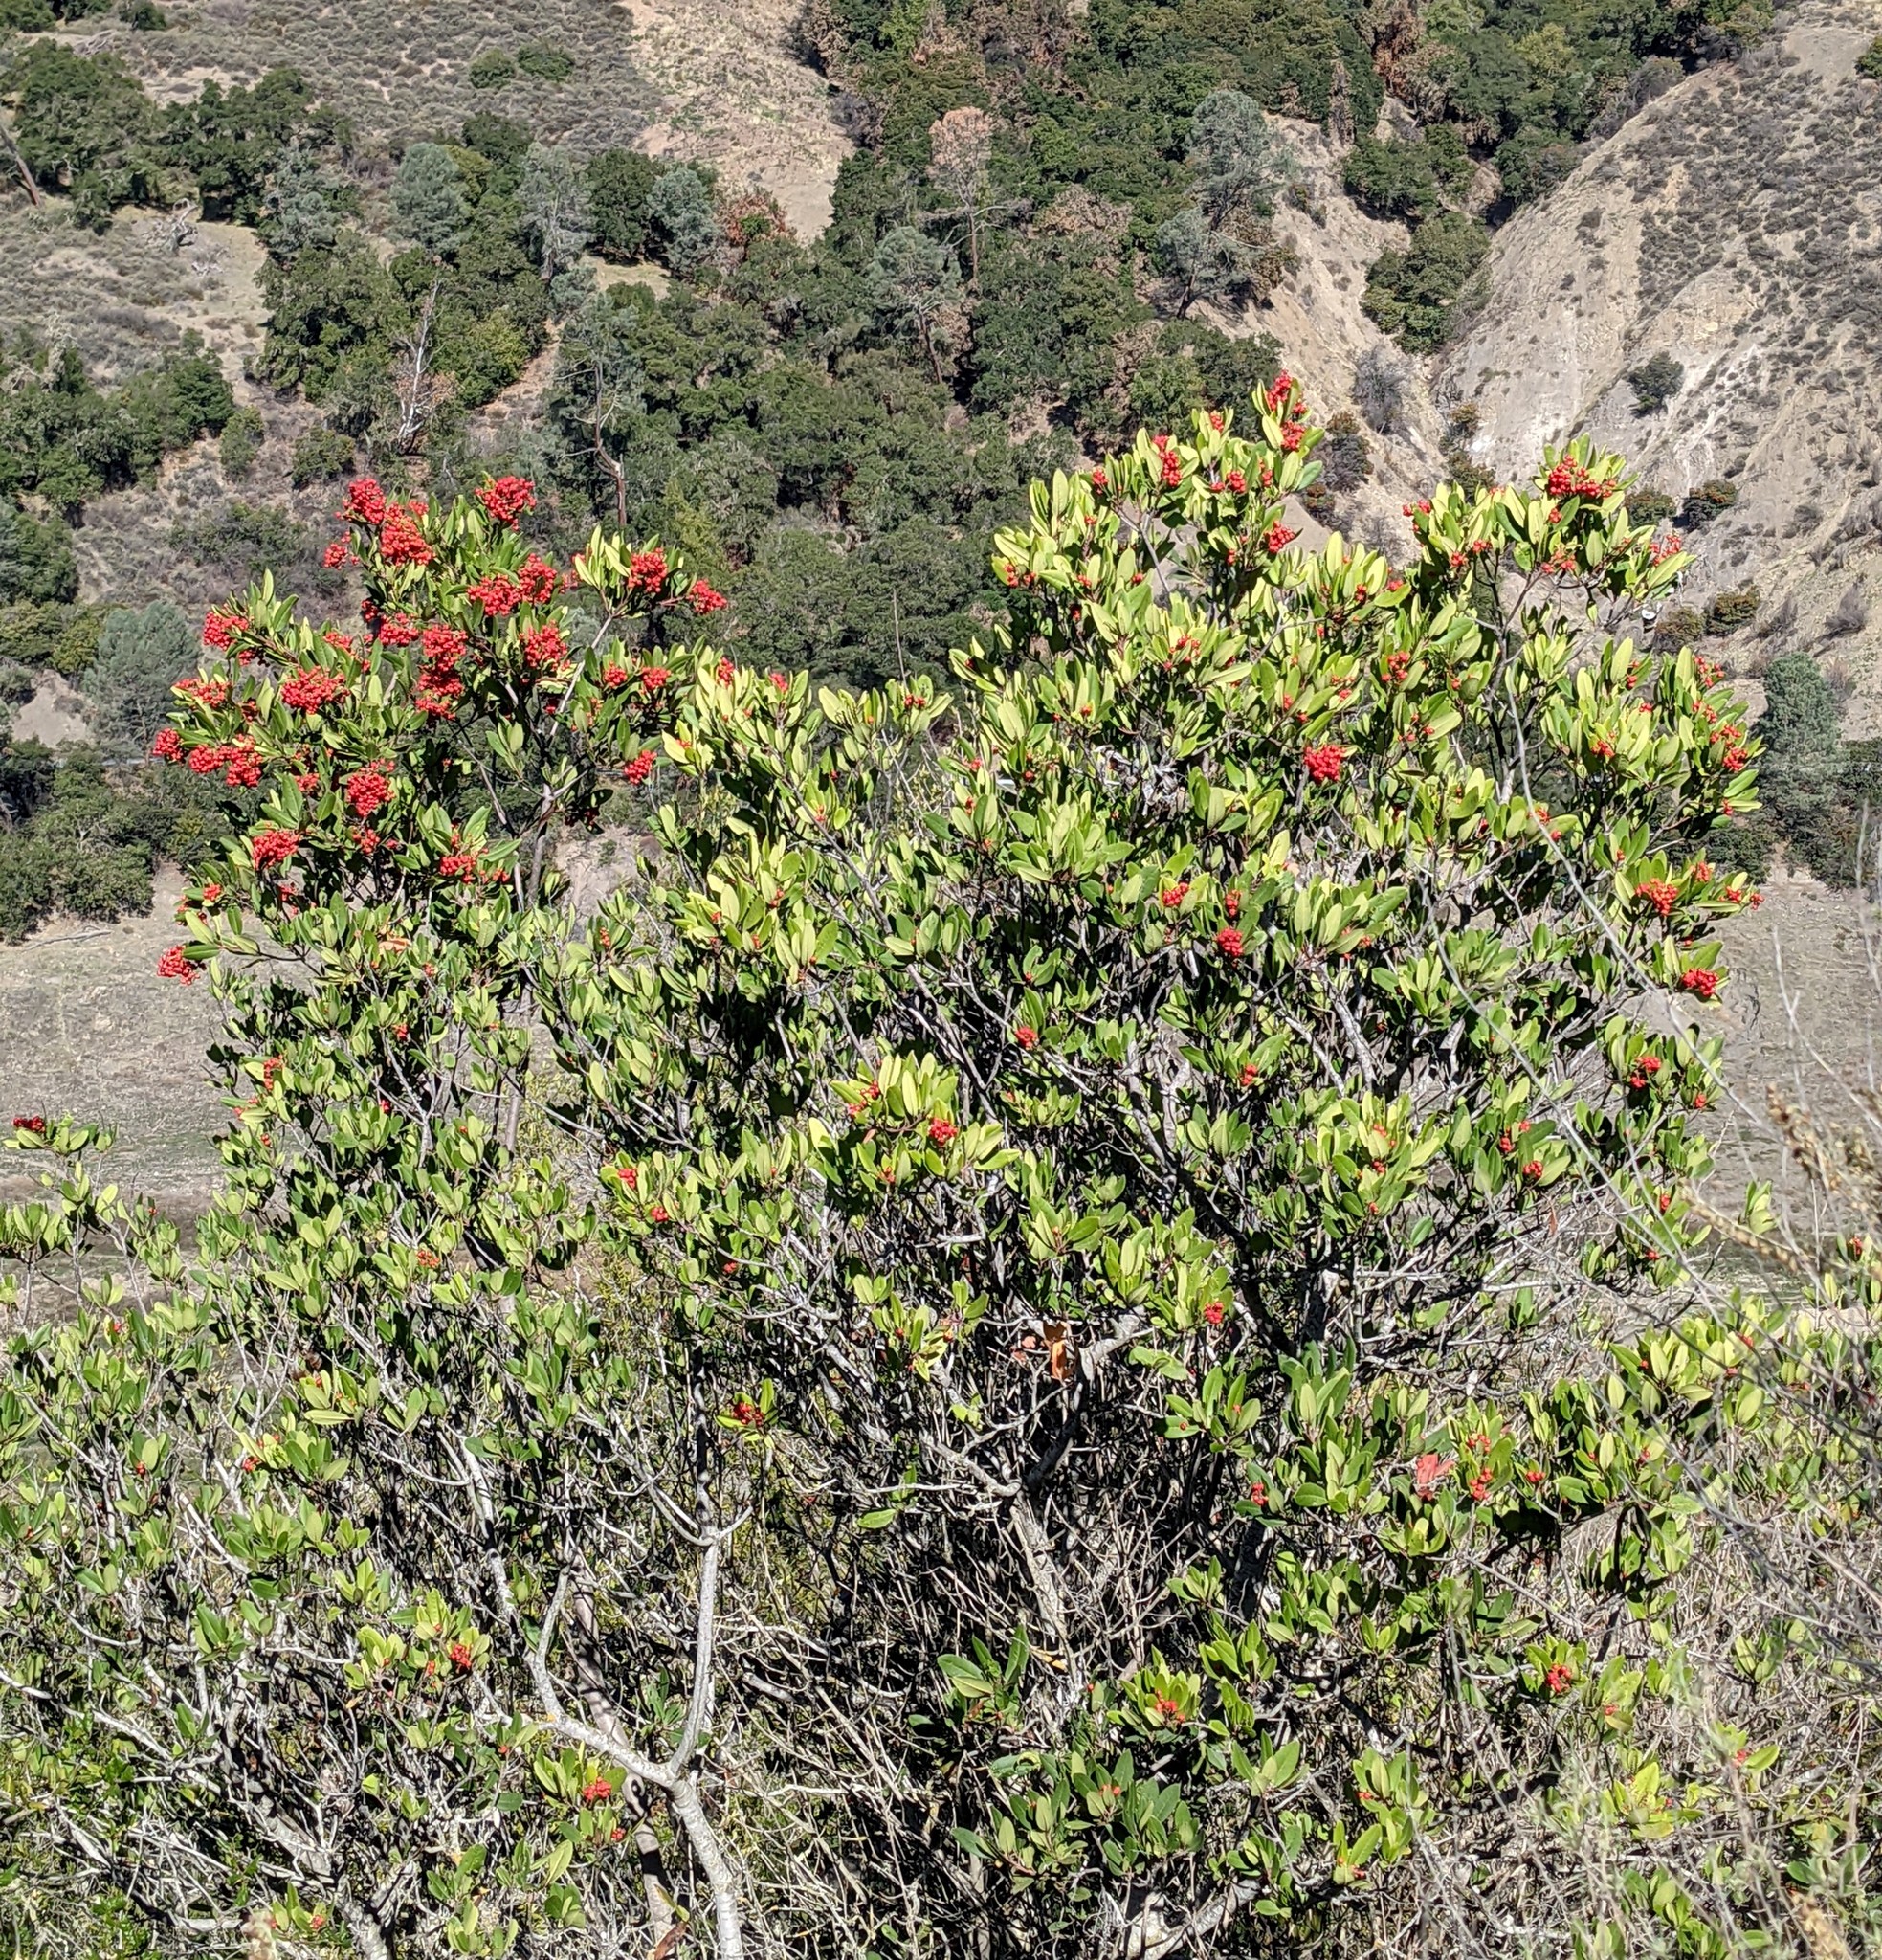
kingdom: Plantae
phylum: Tracheophyta
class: Magnoliopsida
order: Rosales
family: Rosaceae
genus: Heteromeles
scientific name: Heteromeles arbutifolia
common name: California-holly
